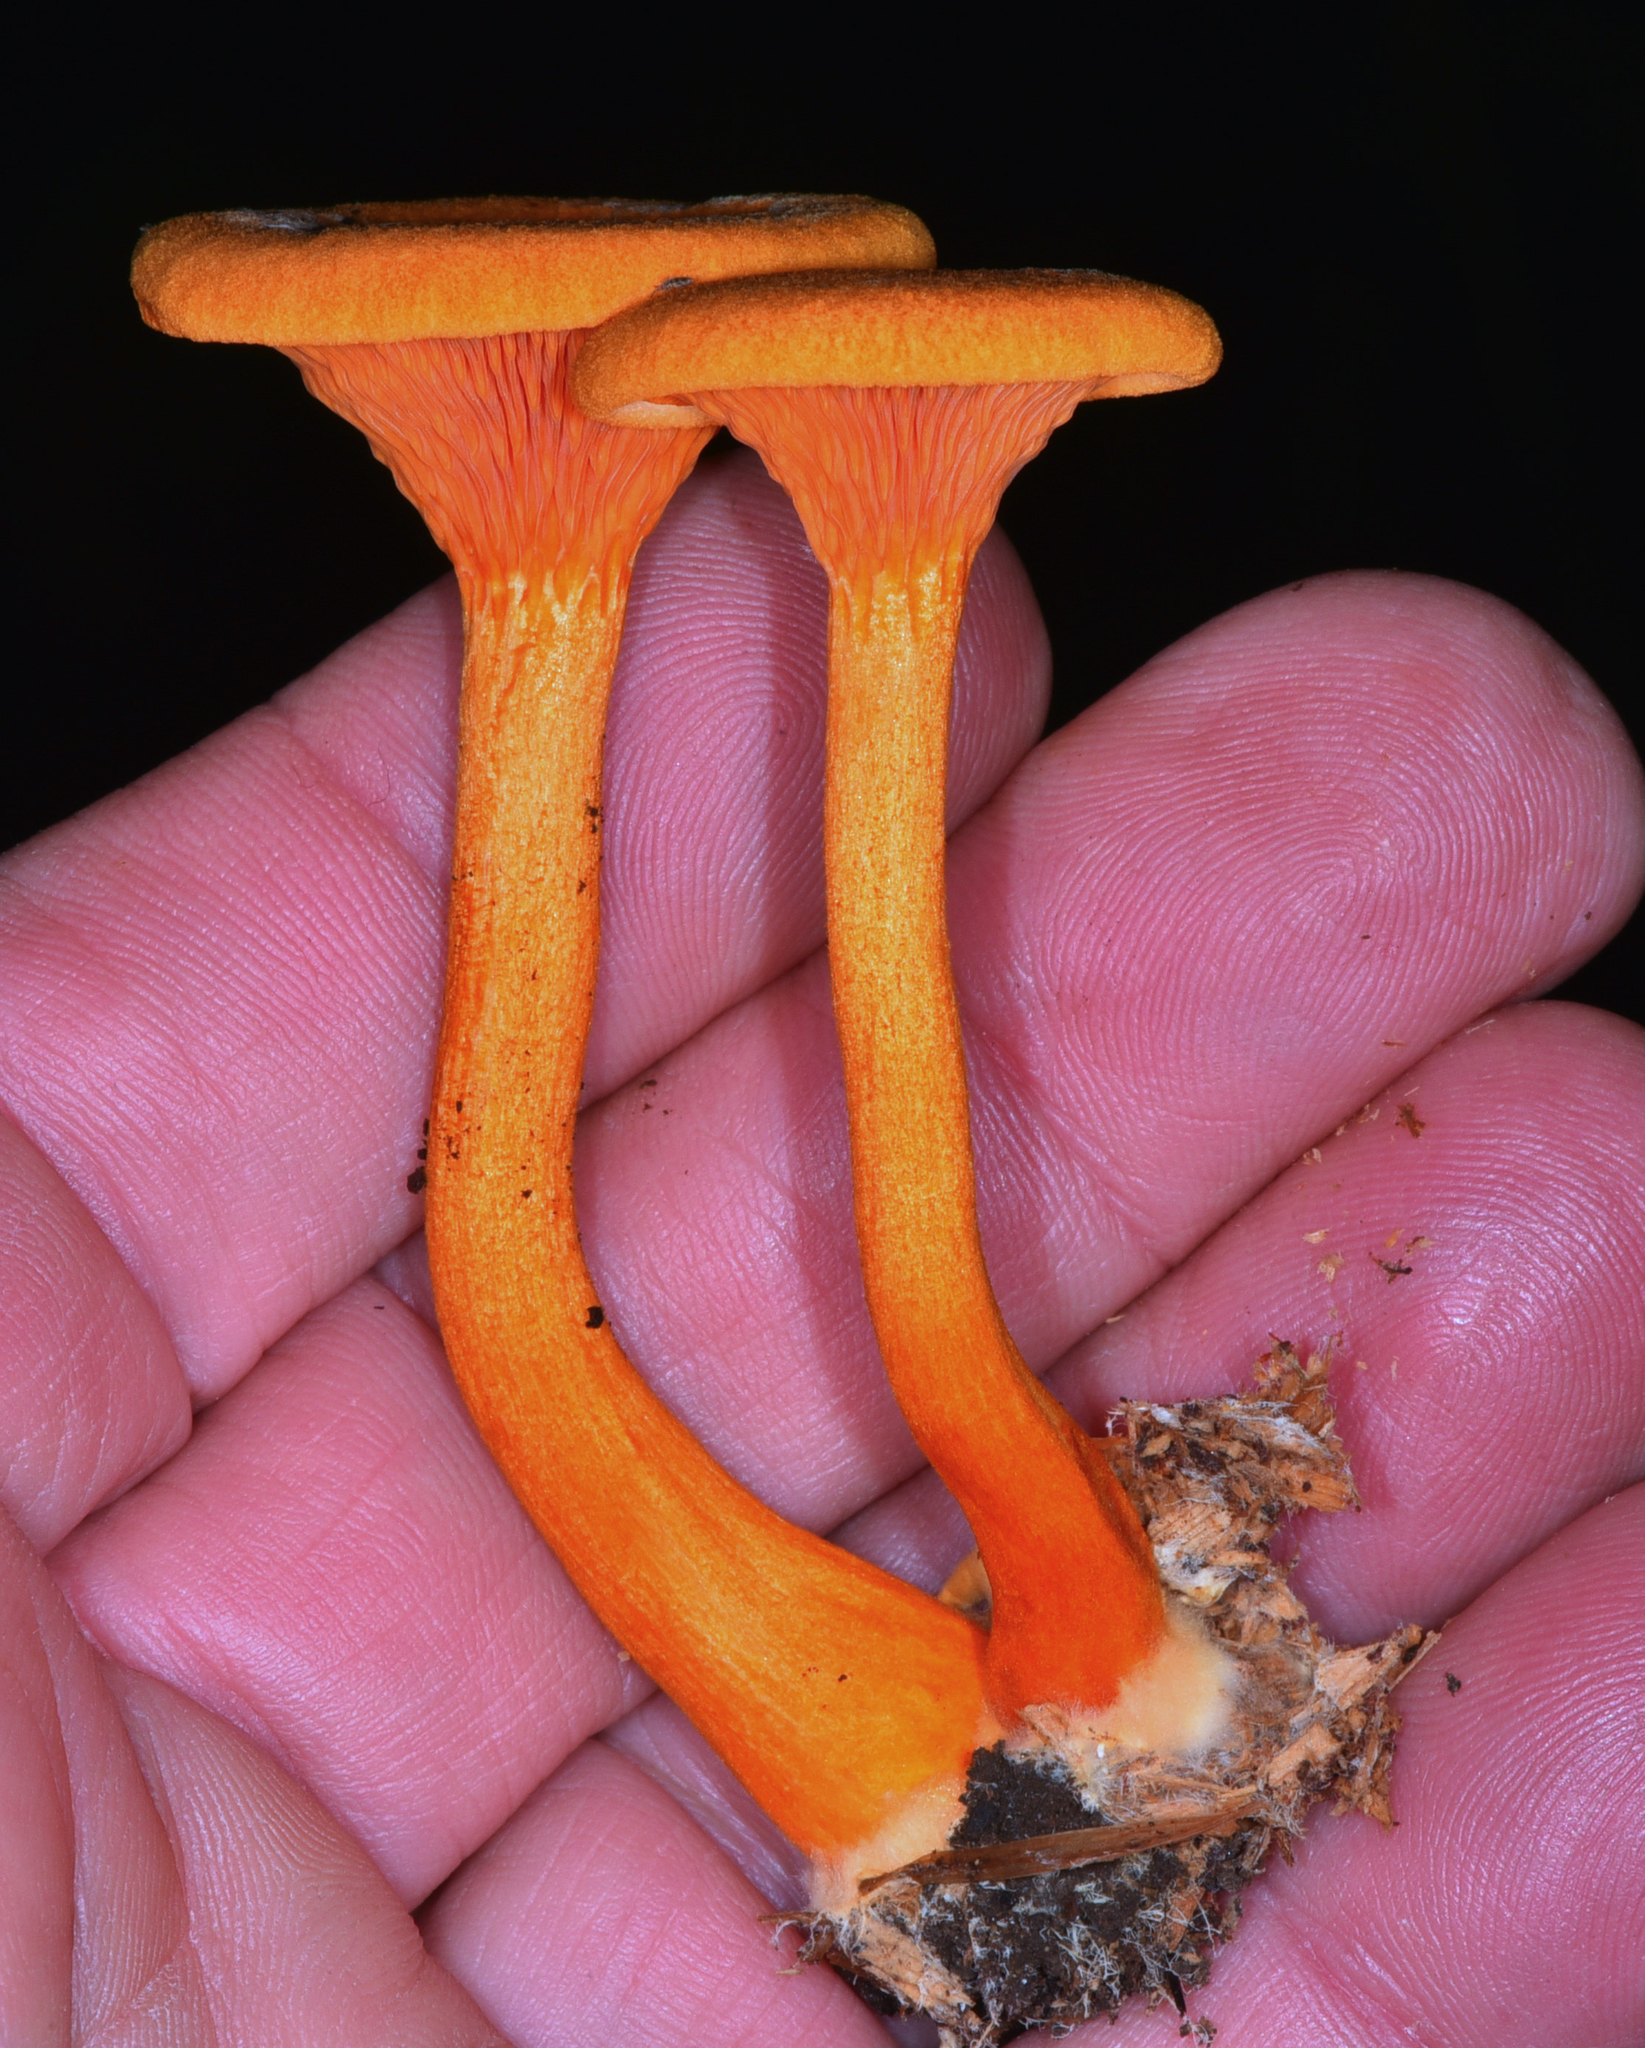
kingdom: Fungi
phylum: Basidiomycota
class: Agaricomycetes
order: Boletales
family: Hygrophoropsidaceae
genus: Hygrophoropsis
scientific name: Hygrophoropsis aurantiaca
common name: False chanterelle
